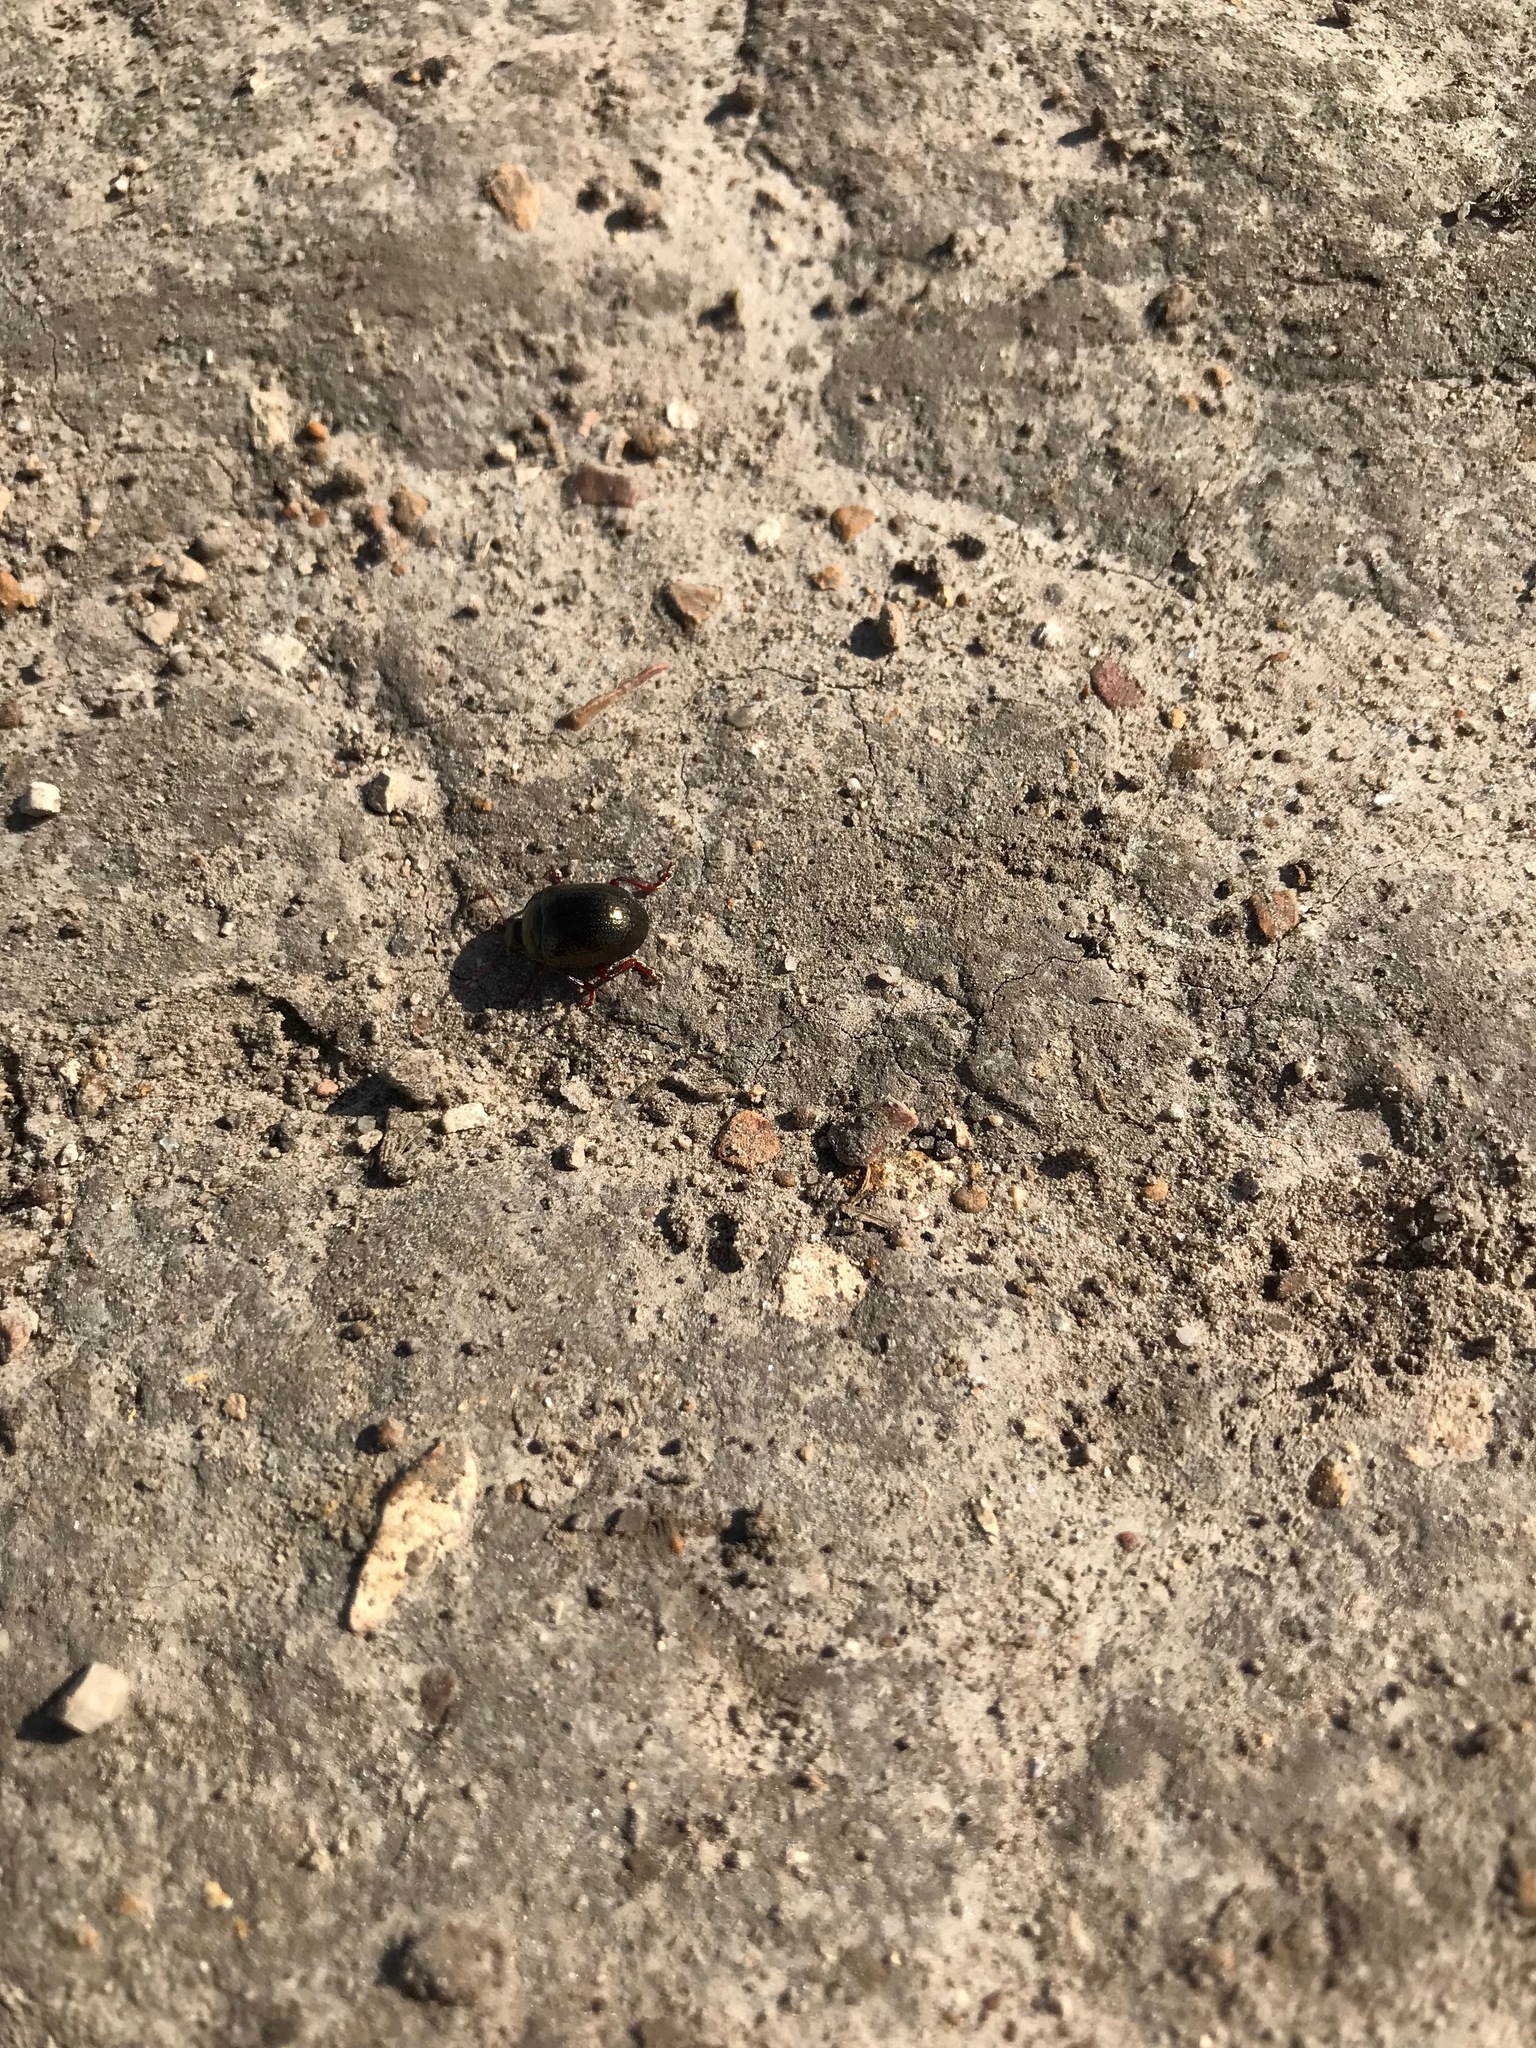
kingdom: Animalia
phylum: Arthropoda
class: Insecta
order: Coleoptera
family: Chrysomelidae
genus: Chrysolina
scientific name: Chrysolina bankii
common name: Leaf beetle
